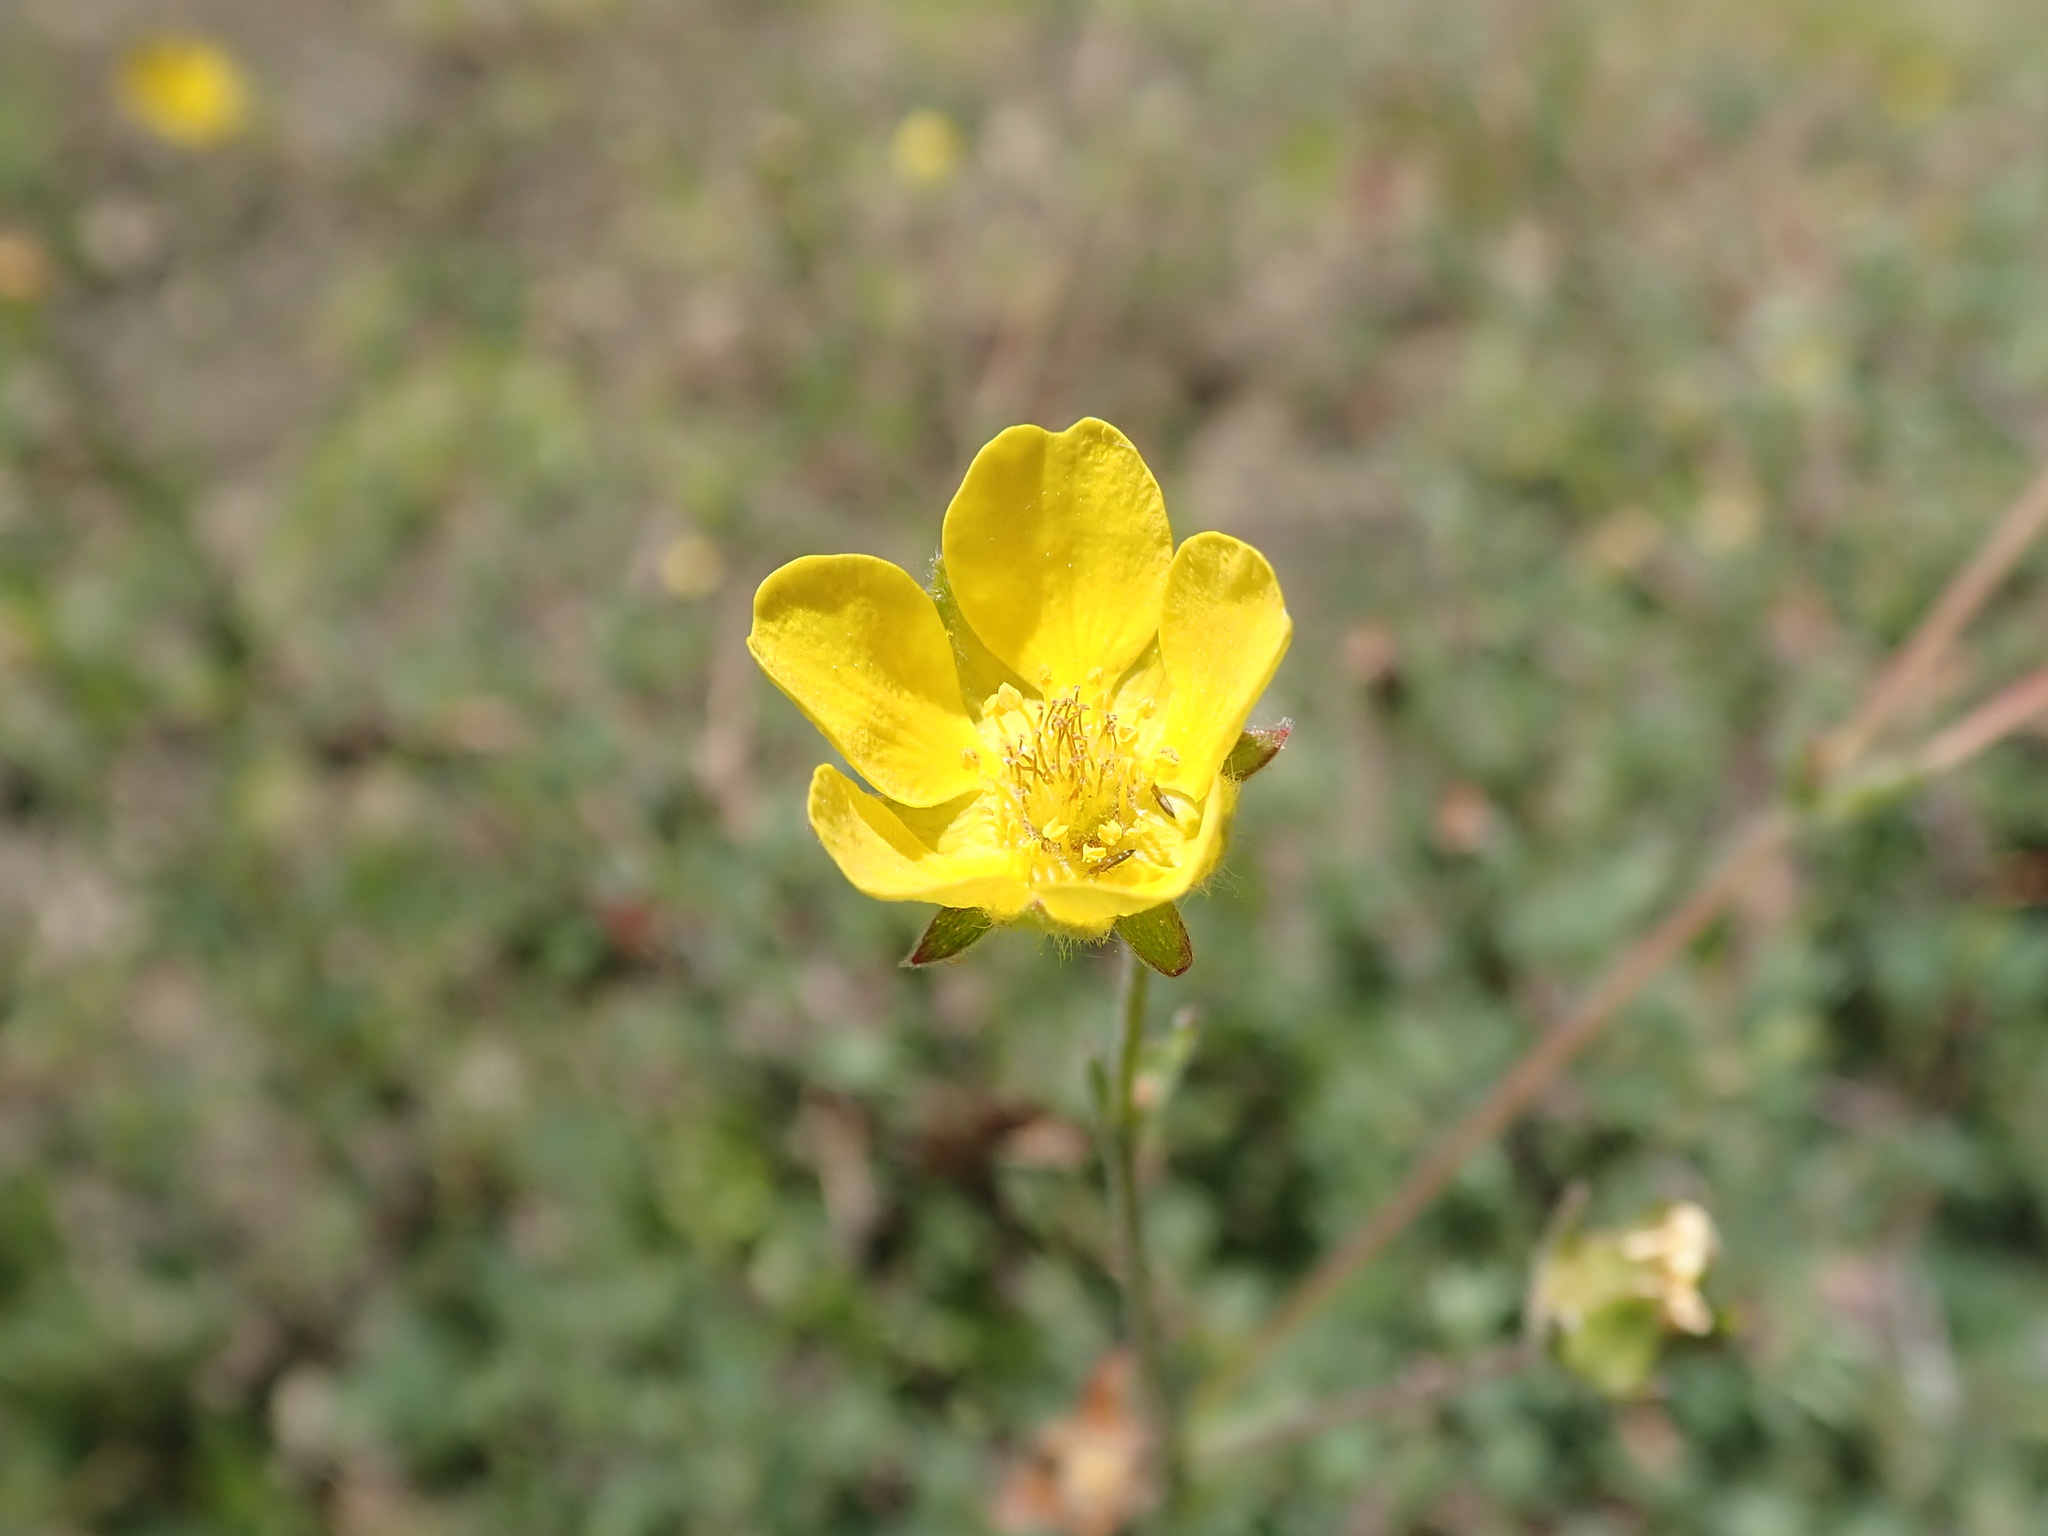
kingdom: Plantae
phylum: Tracheophyta
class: Magnoliopsida
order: Rosales
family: Rosaceae
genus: Dasiphora
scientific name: Dasiphora fruticosa
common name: Shrubby cinquefoil
